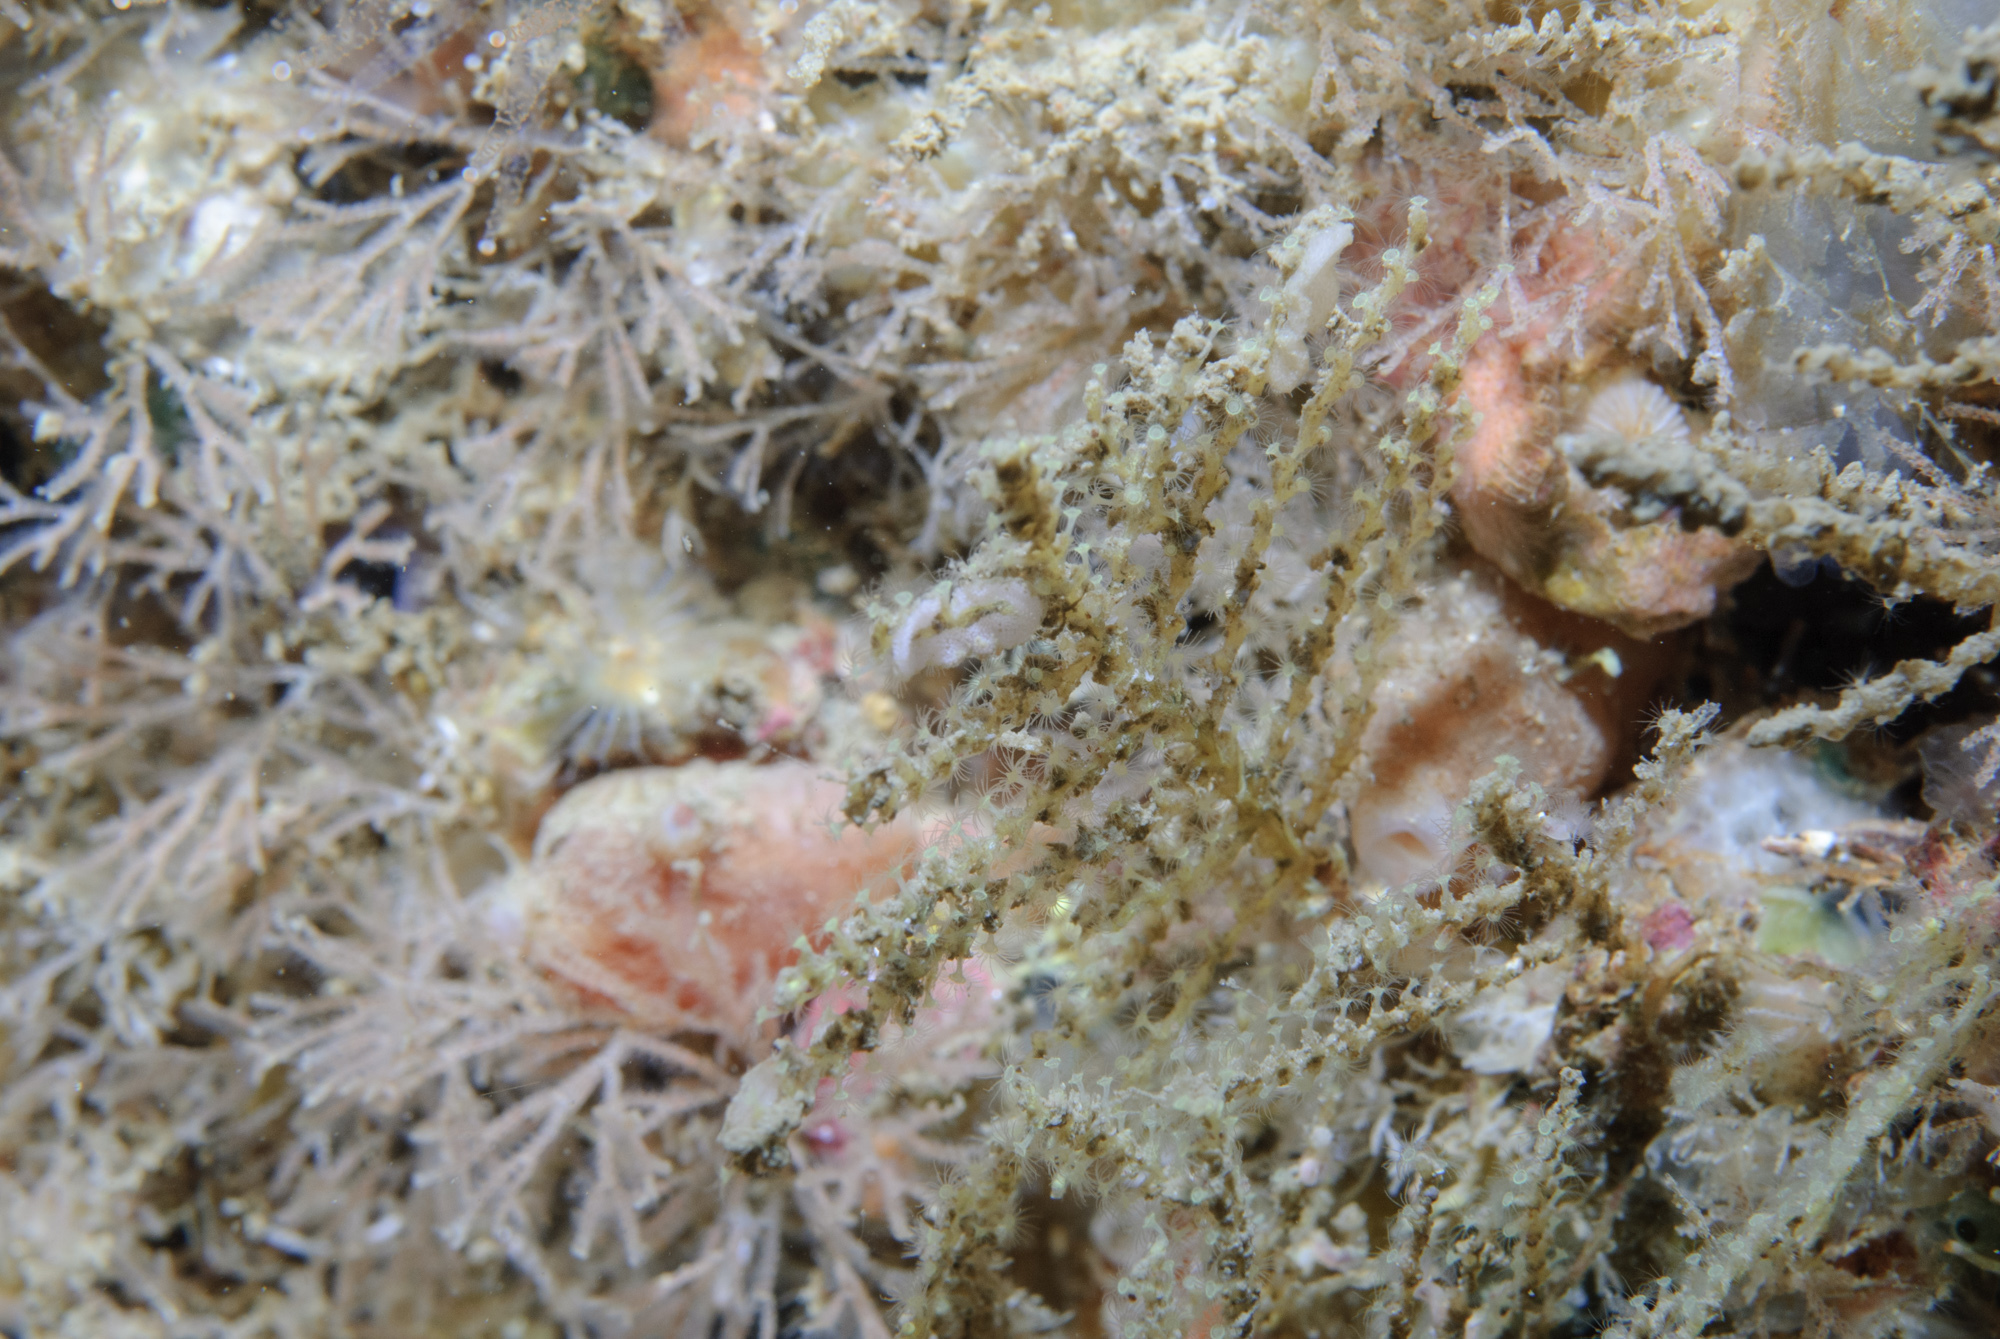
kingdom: Animalia
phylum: Cnidaria
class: Hydrozoa
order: Leptothecata
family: Sertularellidae
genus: Sertularella
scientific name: Sertularella gayi
